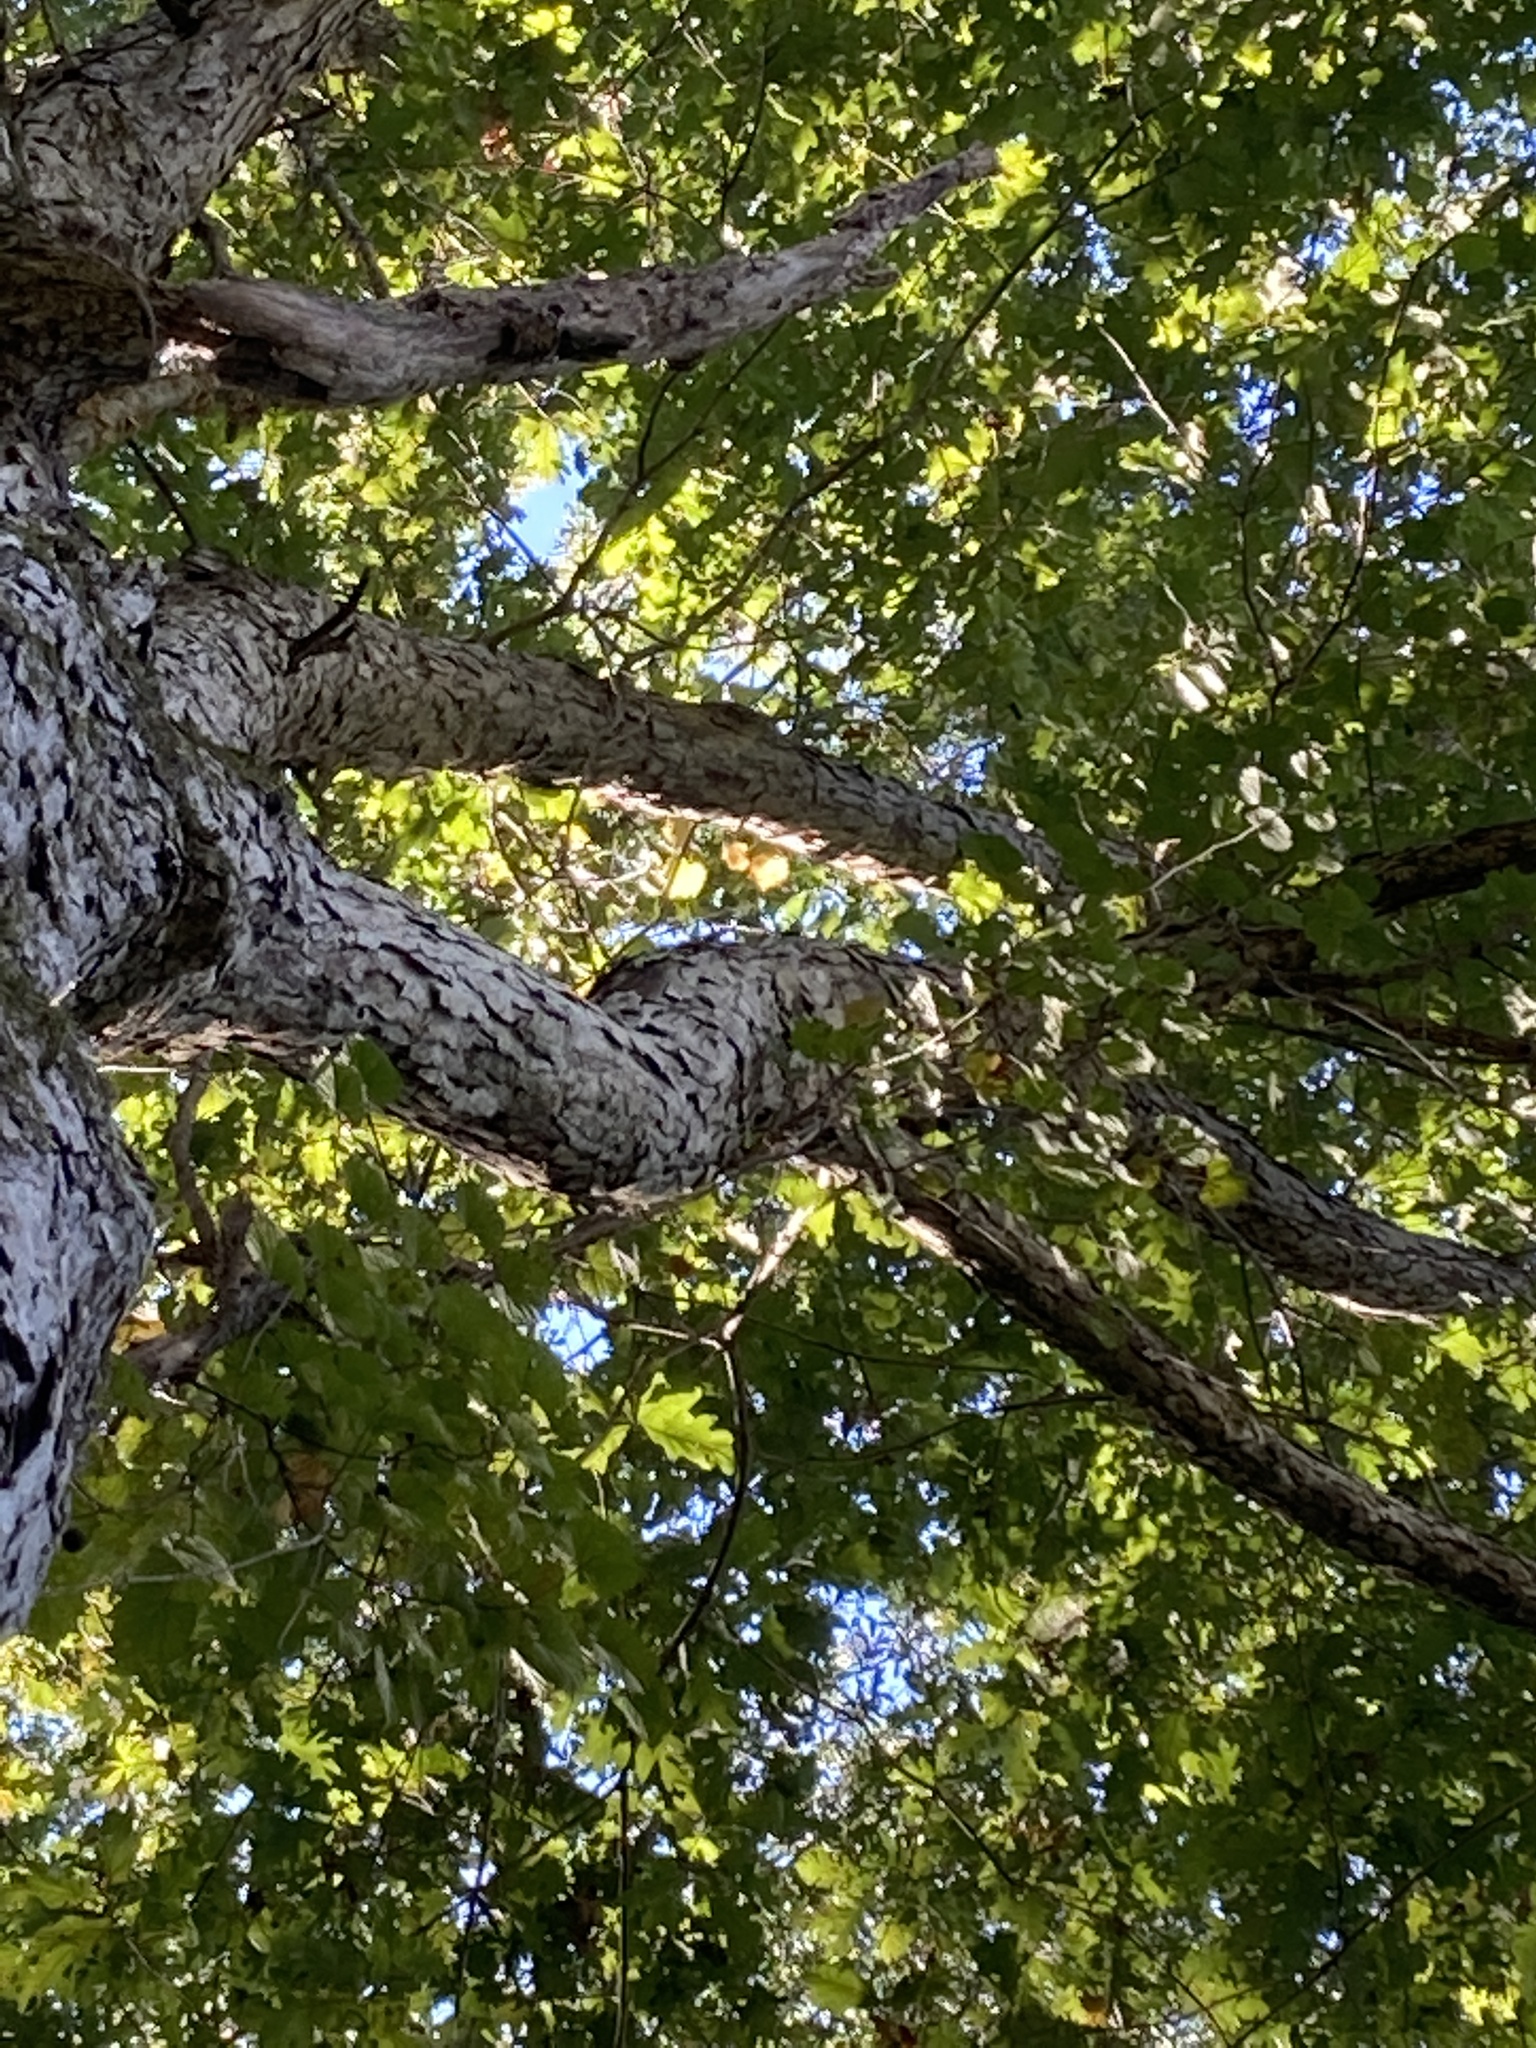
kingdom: Plantae
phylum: Tracheophyta
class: Magnoliopsida
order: Fagales
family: Fagaceae
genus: Quercus
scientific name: Quercus alba
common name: White oak
